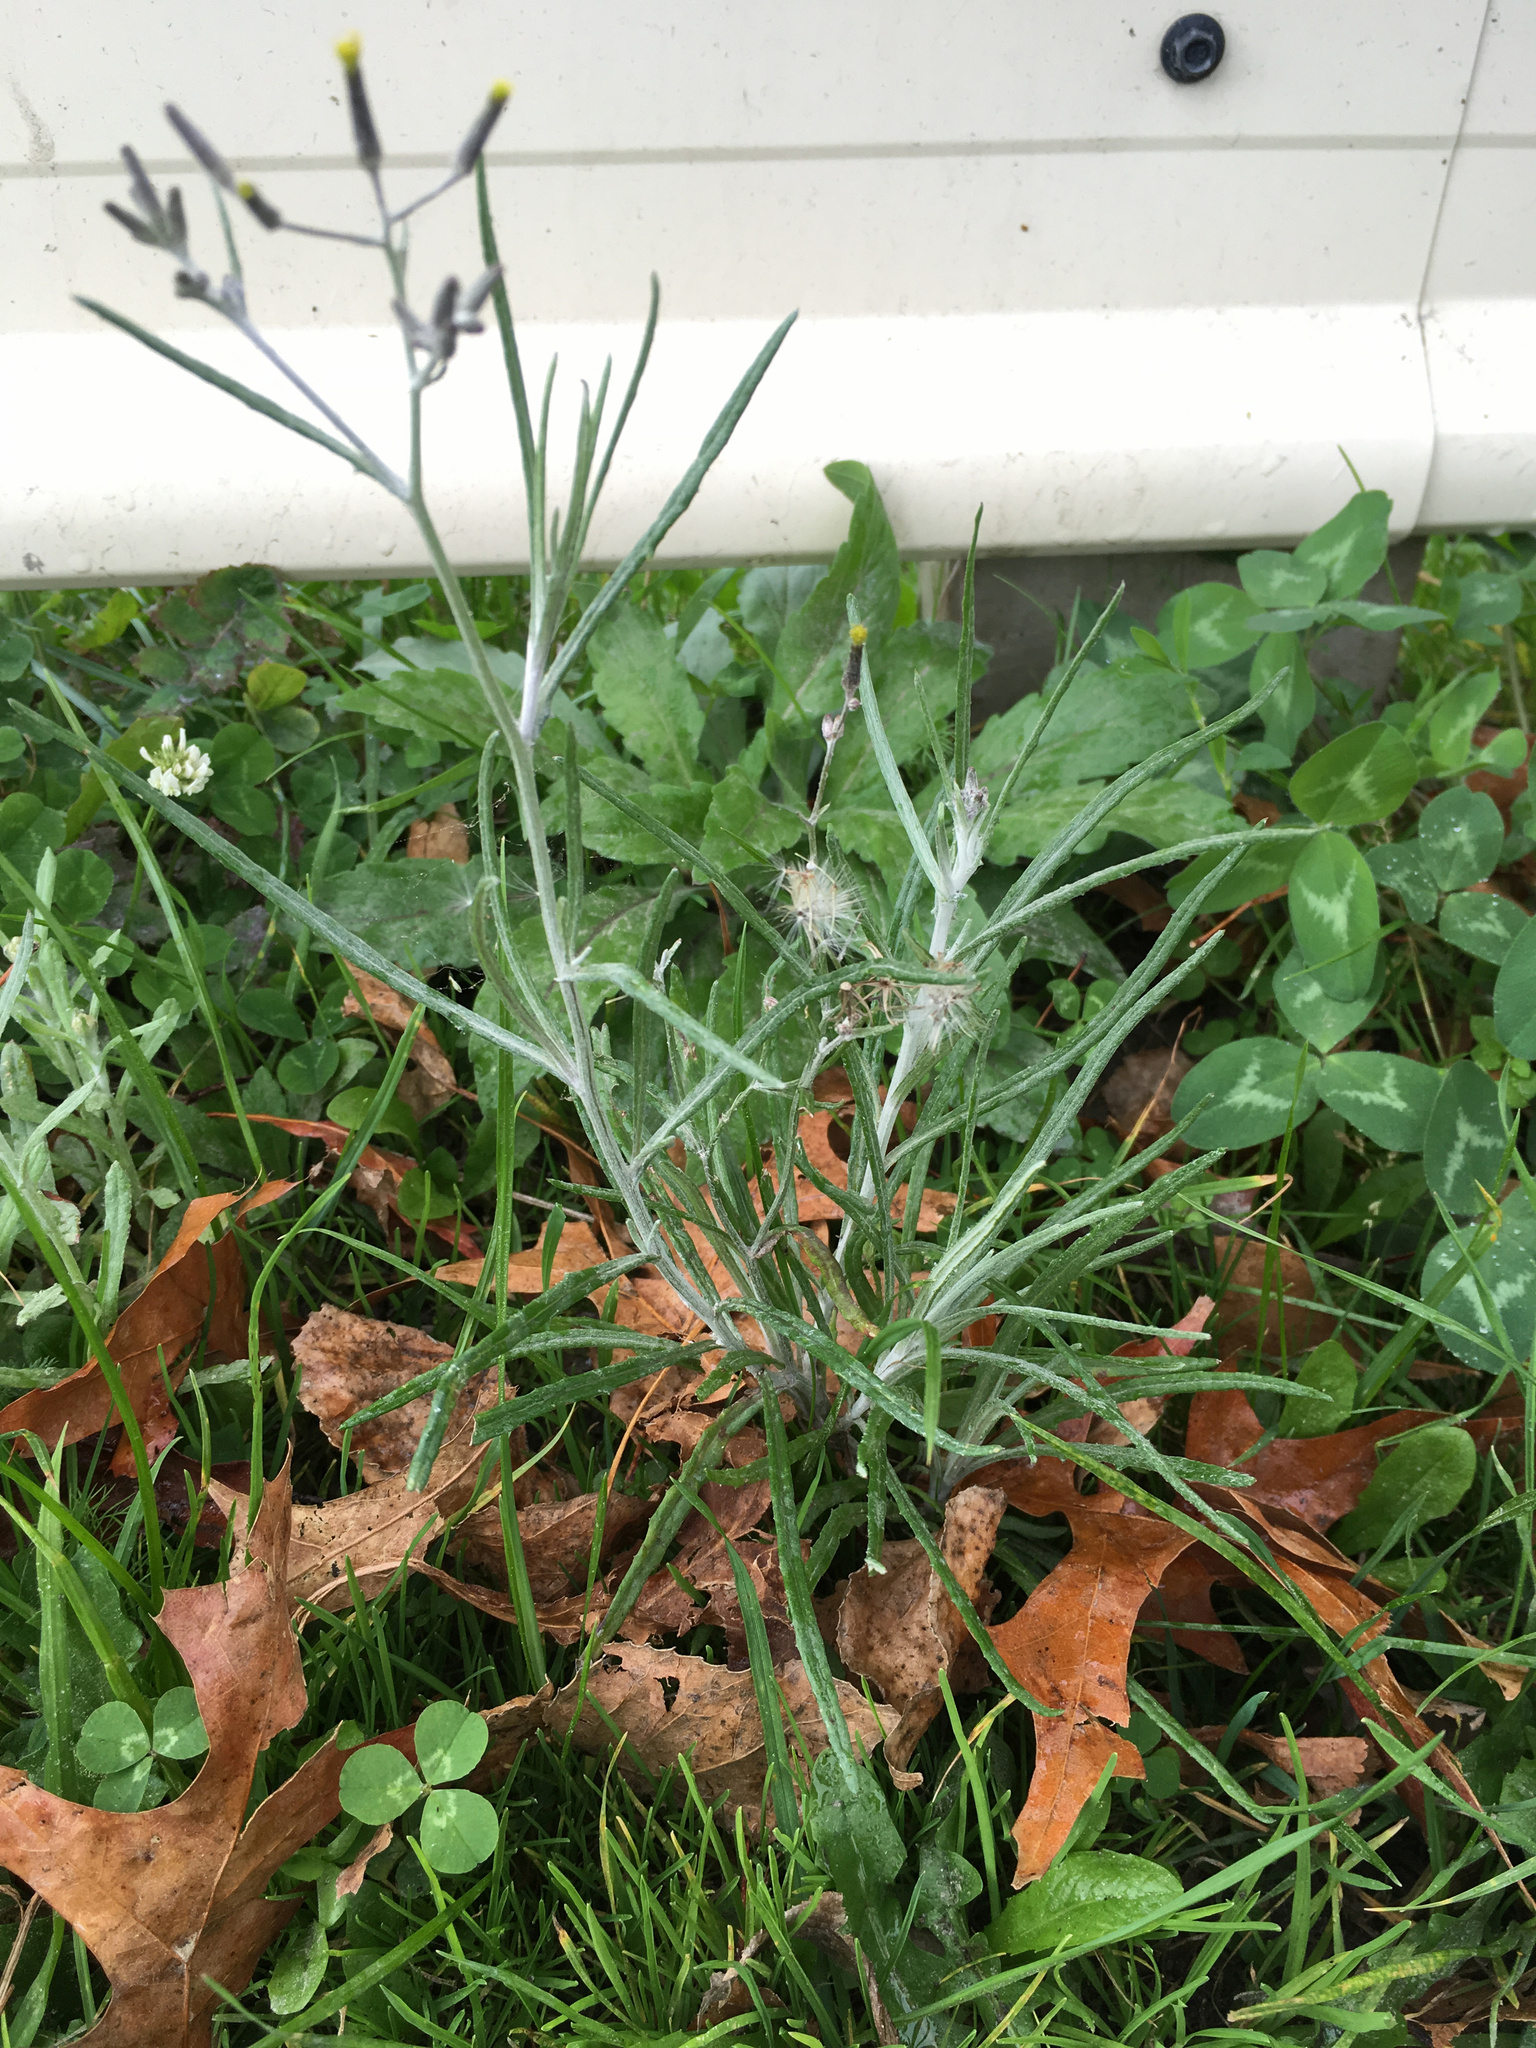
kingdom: Plantae
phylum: Tracheophyta
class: Magnoliopsida
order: Asterales
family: Asteraceae
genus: Senecio
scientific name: Senecio quadridentatus
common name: Cotton fireweed
